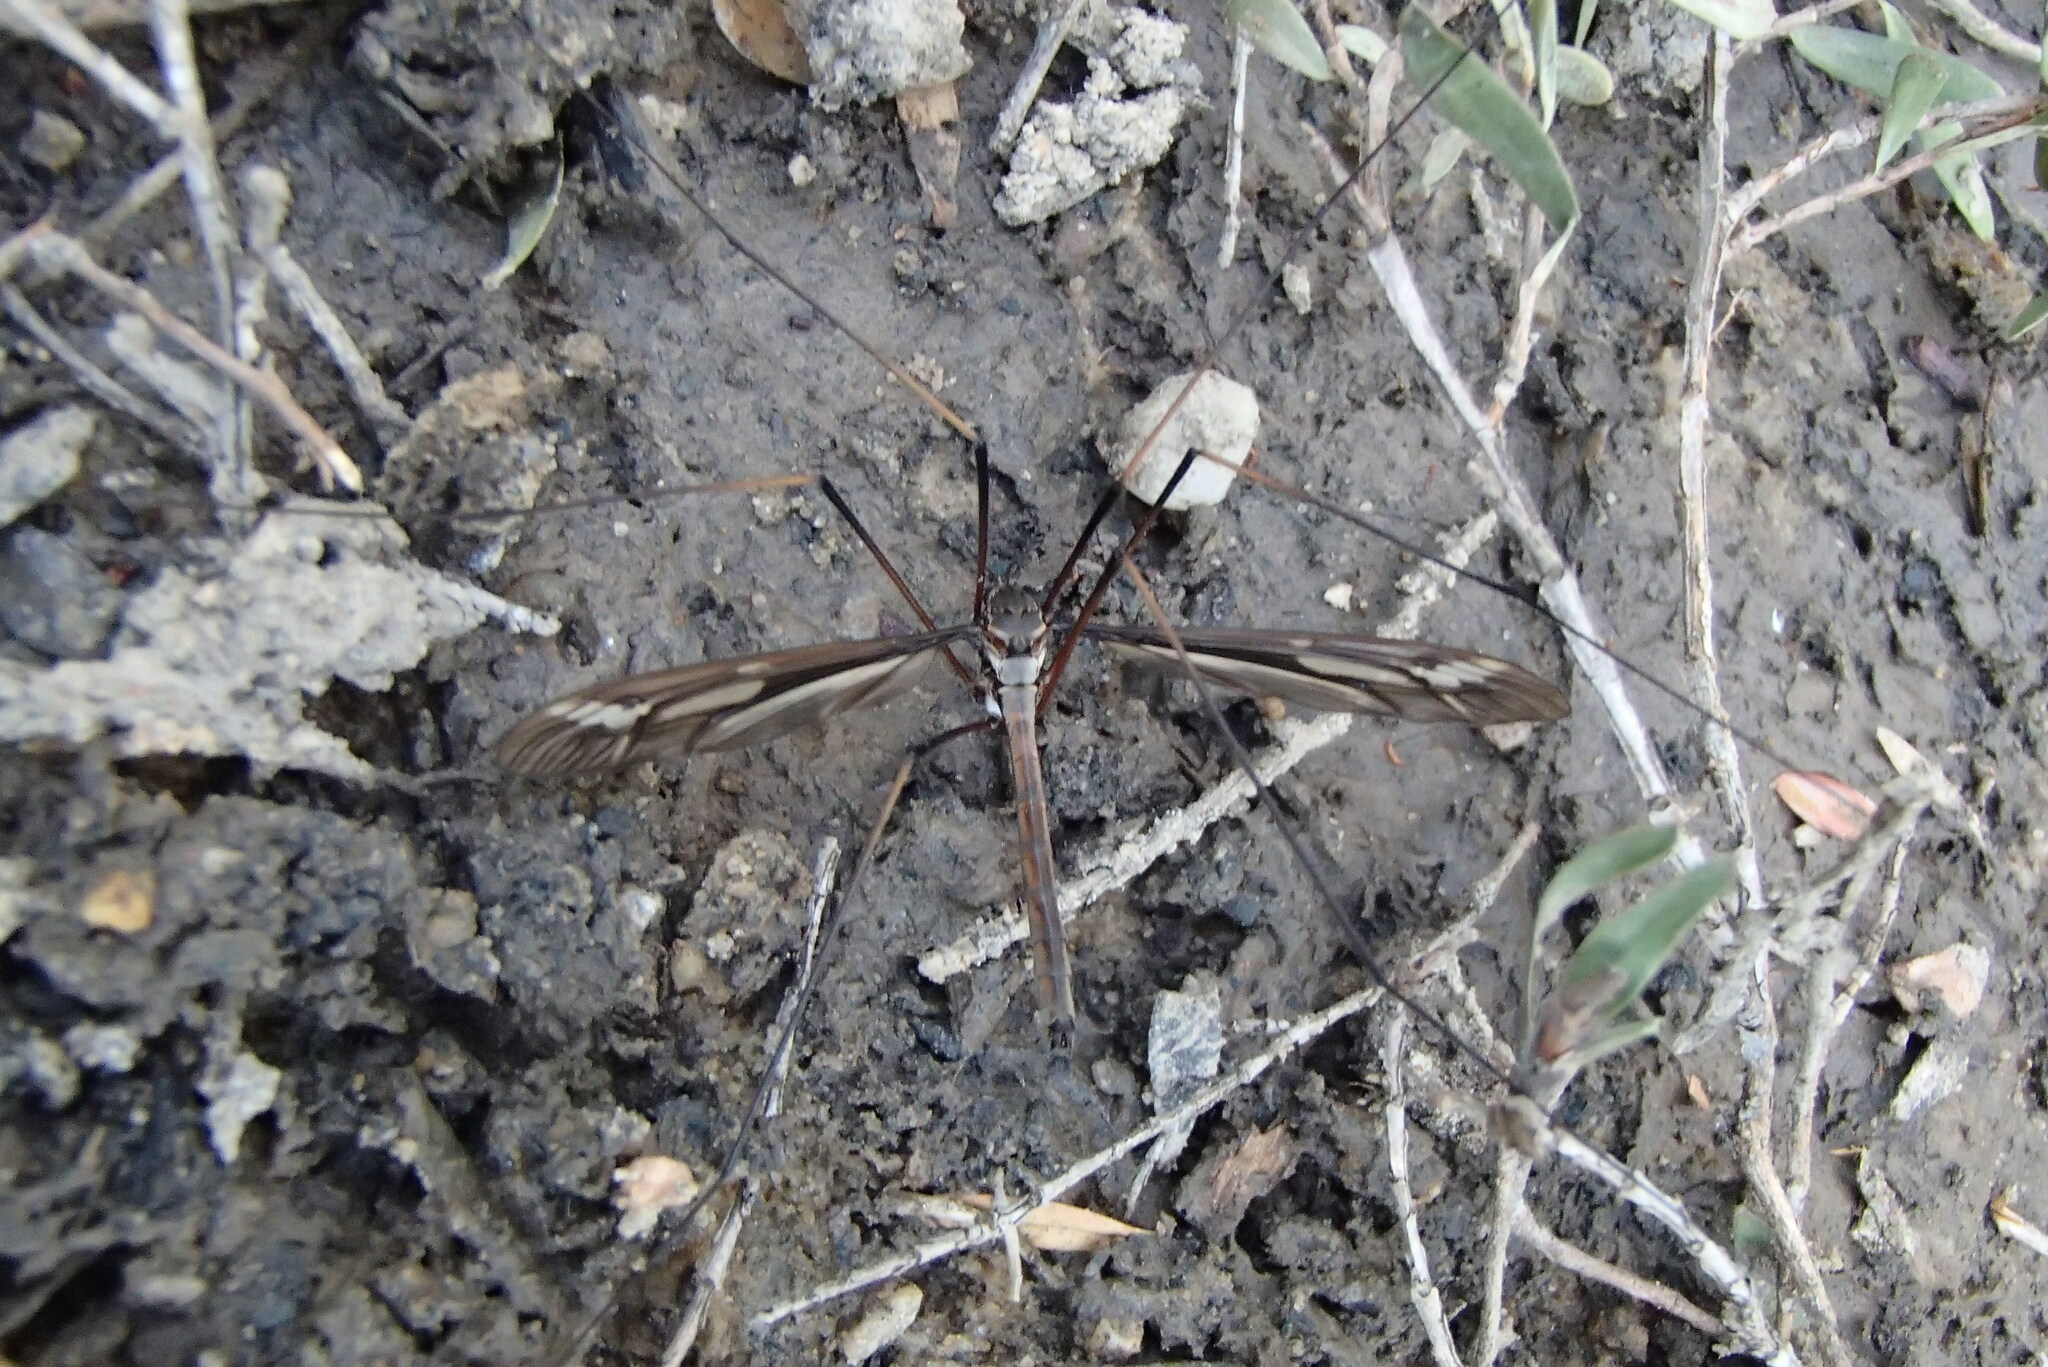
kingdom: Animalia
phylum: Arthropoda
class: Insecta
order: Diptera
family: Tipulidae
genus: Ptilogyna
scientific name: Ptilogyna olliffi
